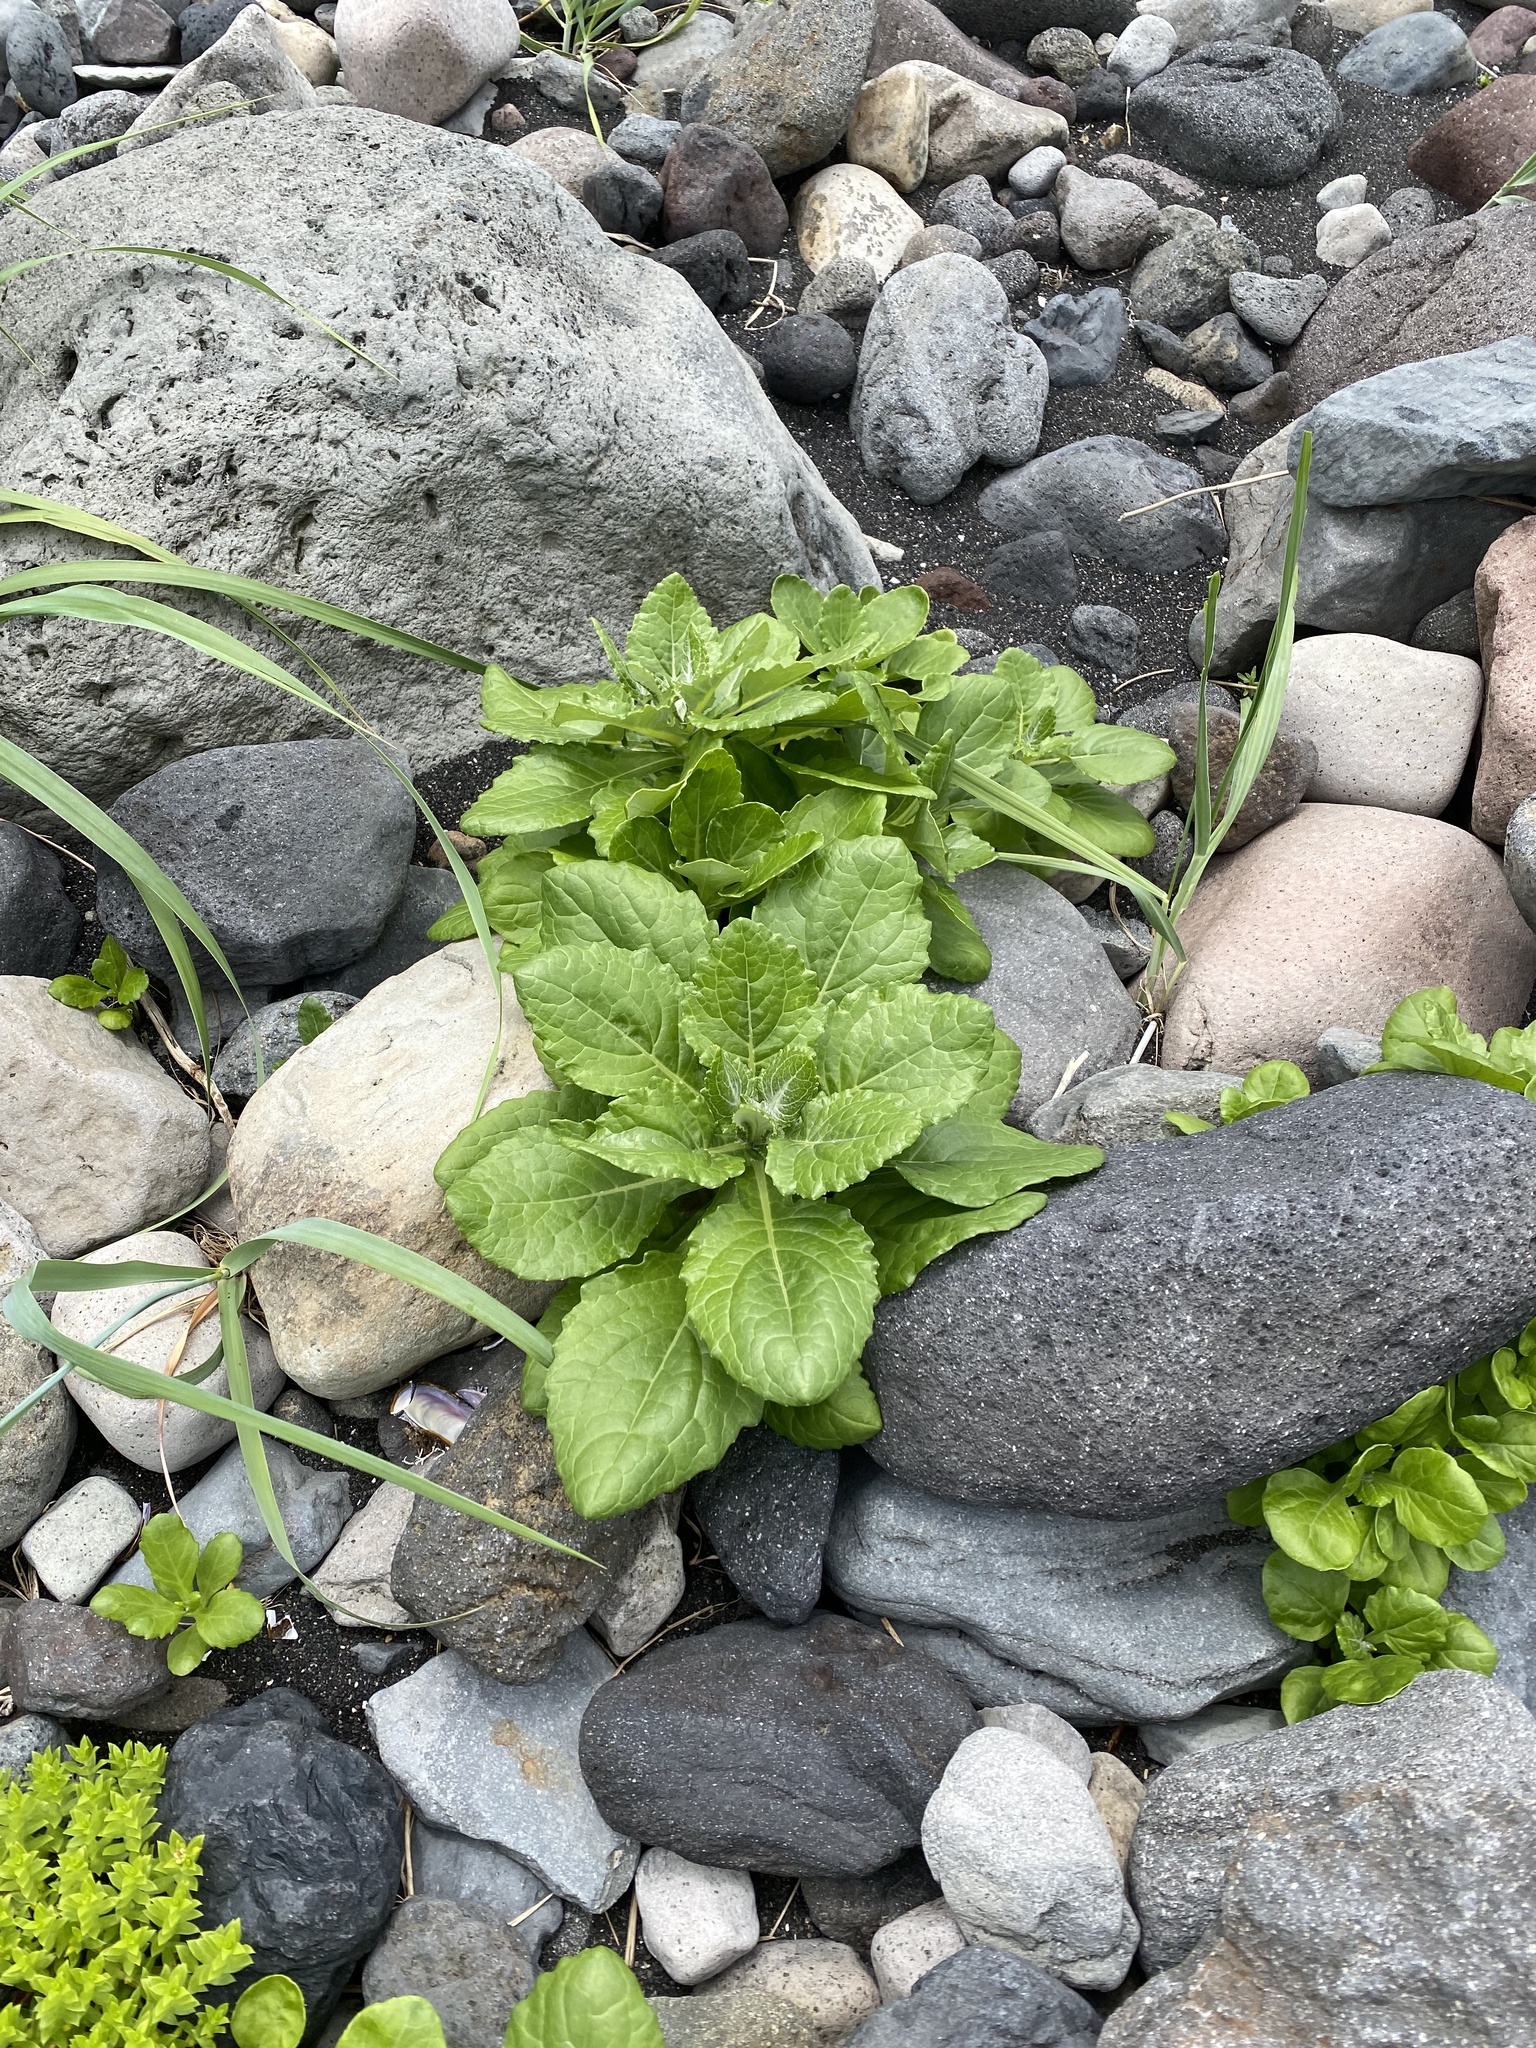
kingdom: Plantae
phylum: Tracheophyta
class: Magnoliopsida
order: Asterales
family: Asteraceae
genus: Jacobaea
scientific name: Jacobaea pseudoarnica
